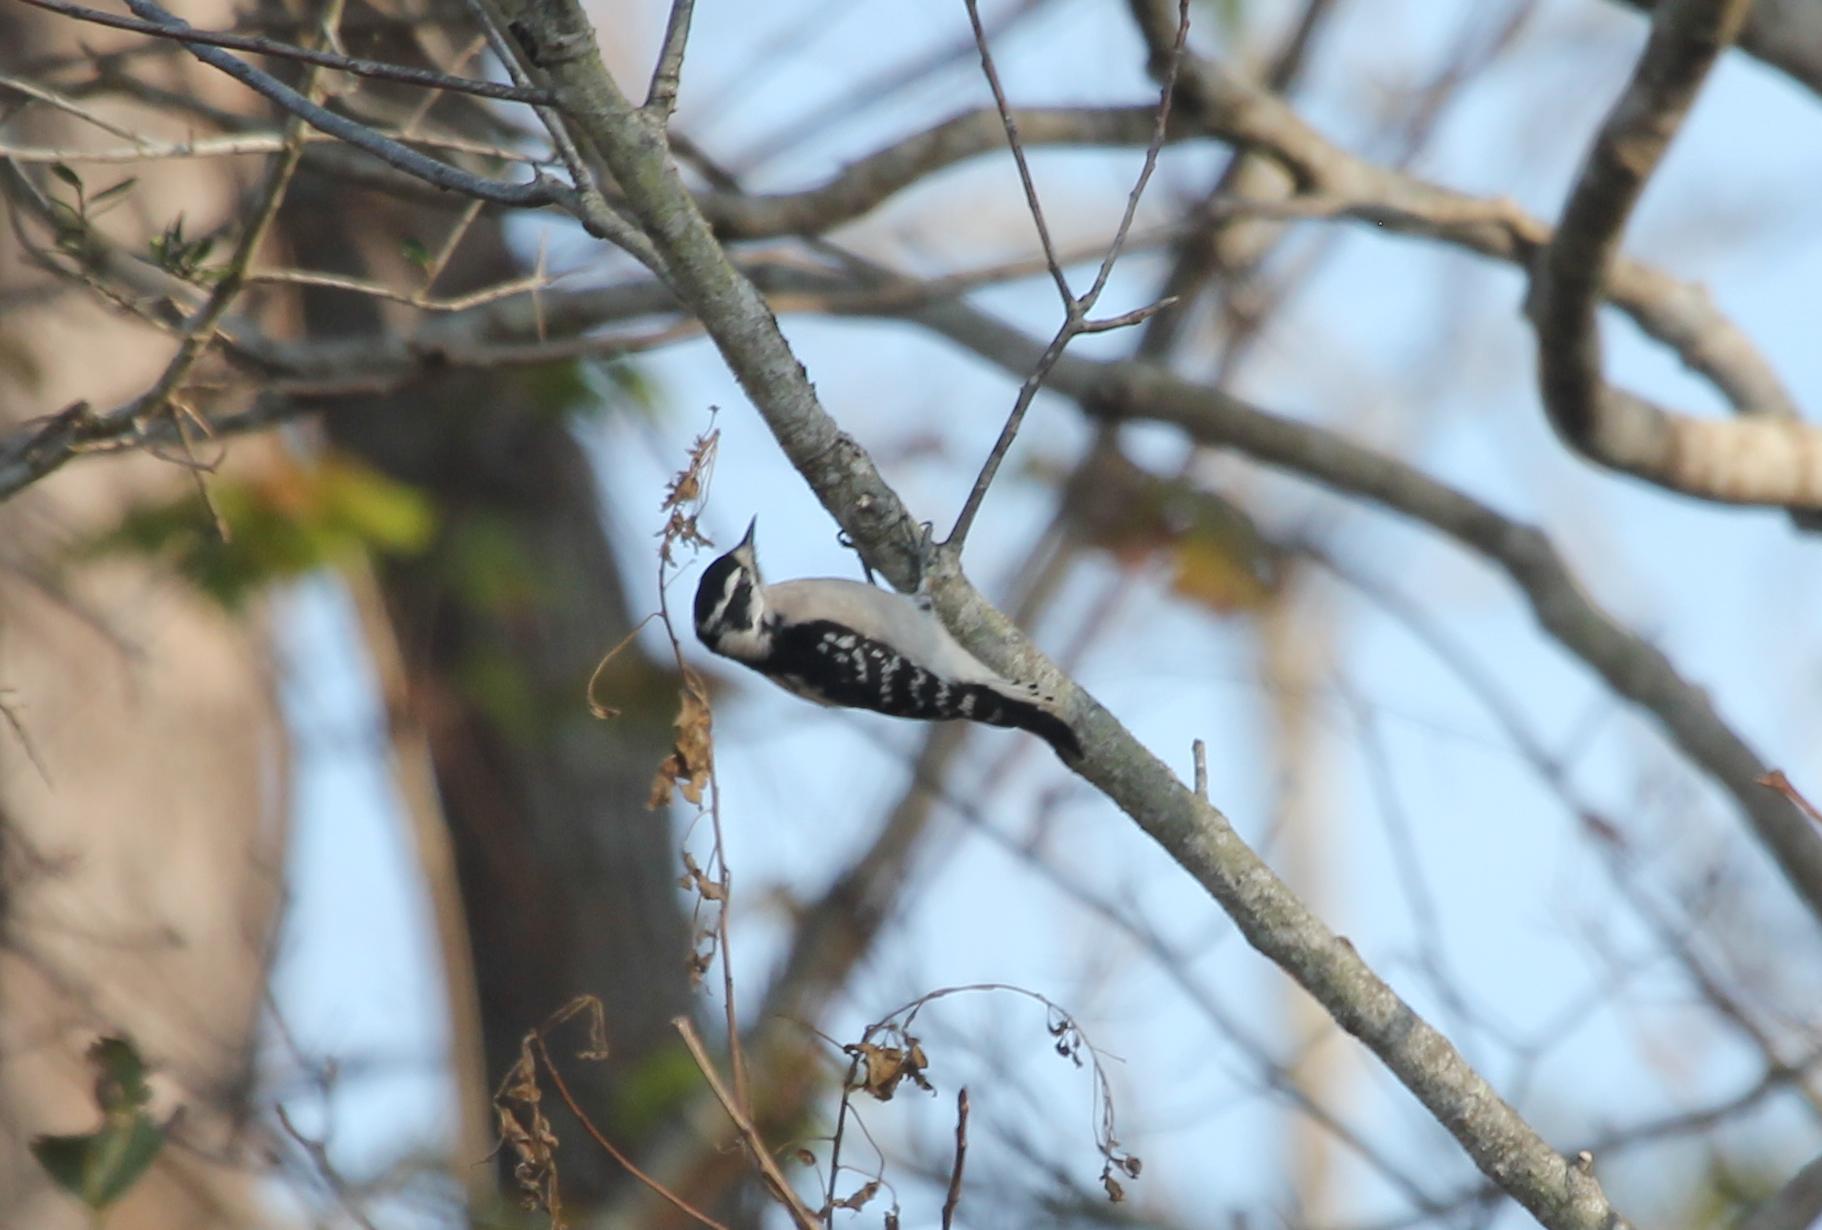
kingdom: Animalia
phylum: Chordata
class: Aves
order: Piciformes
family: Picidae
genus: Dryobates
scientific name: Dryobates pubescens
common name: Downy woodpecker
